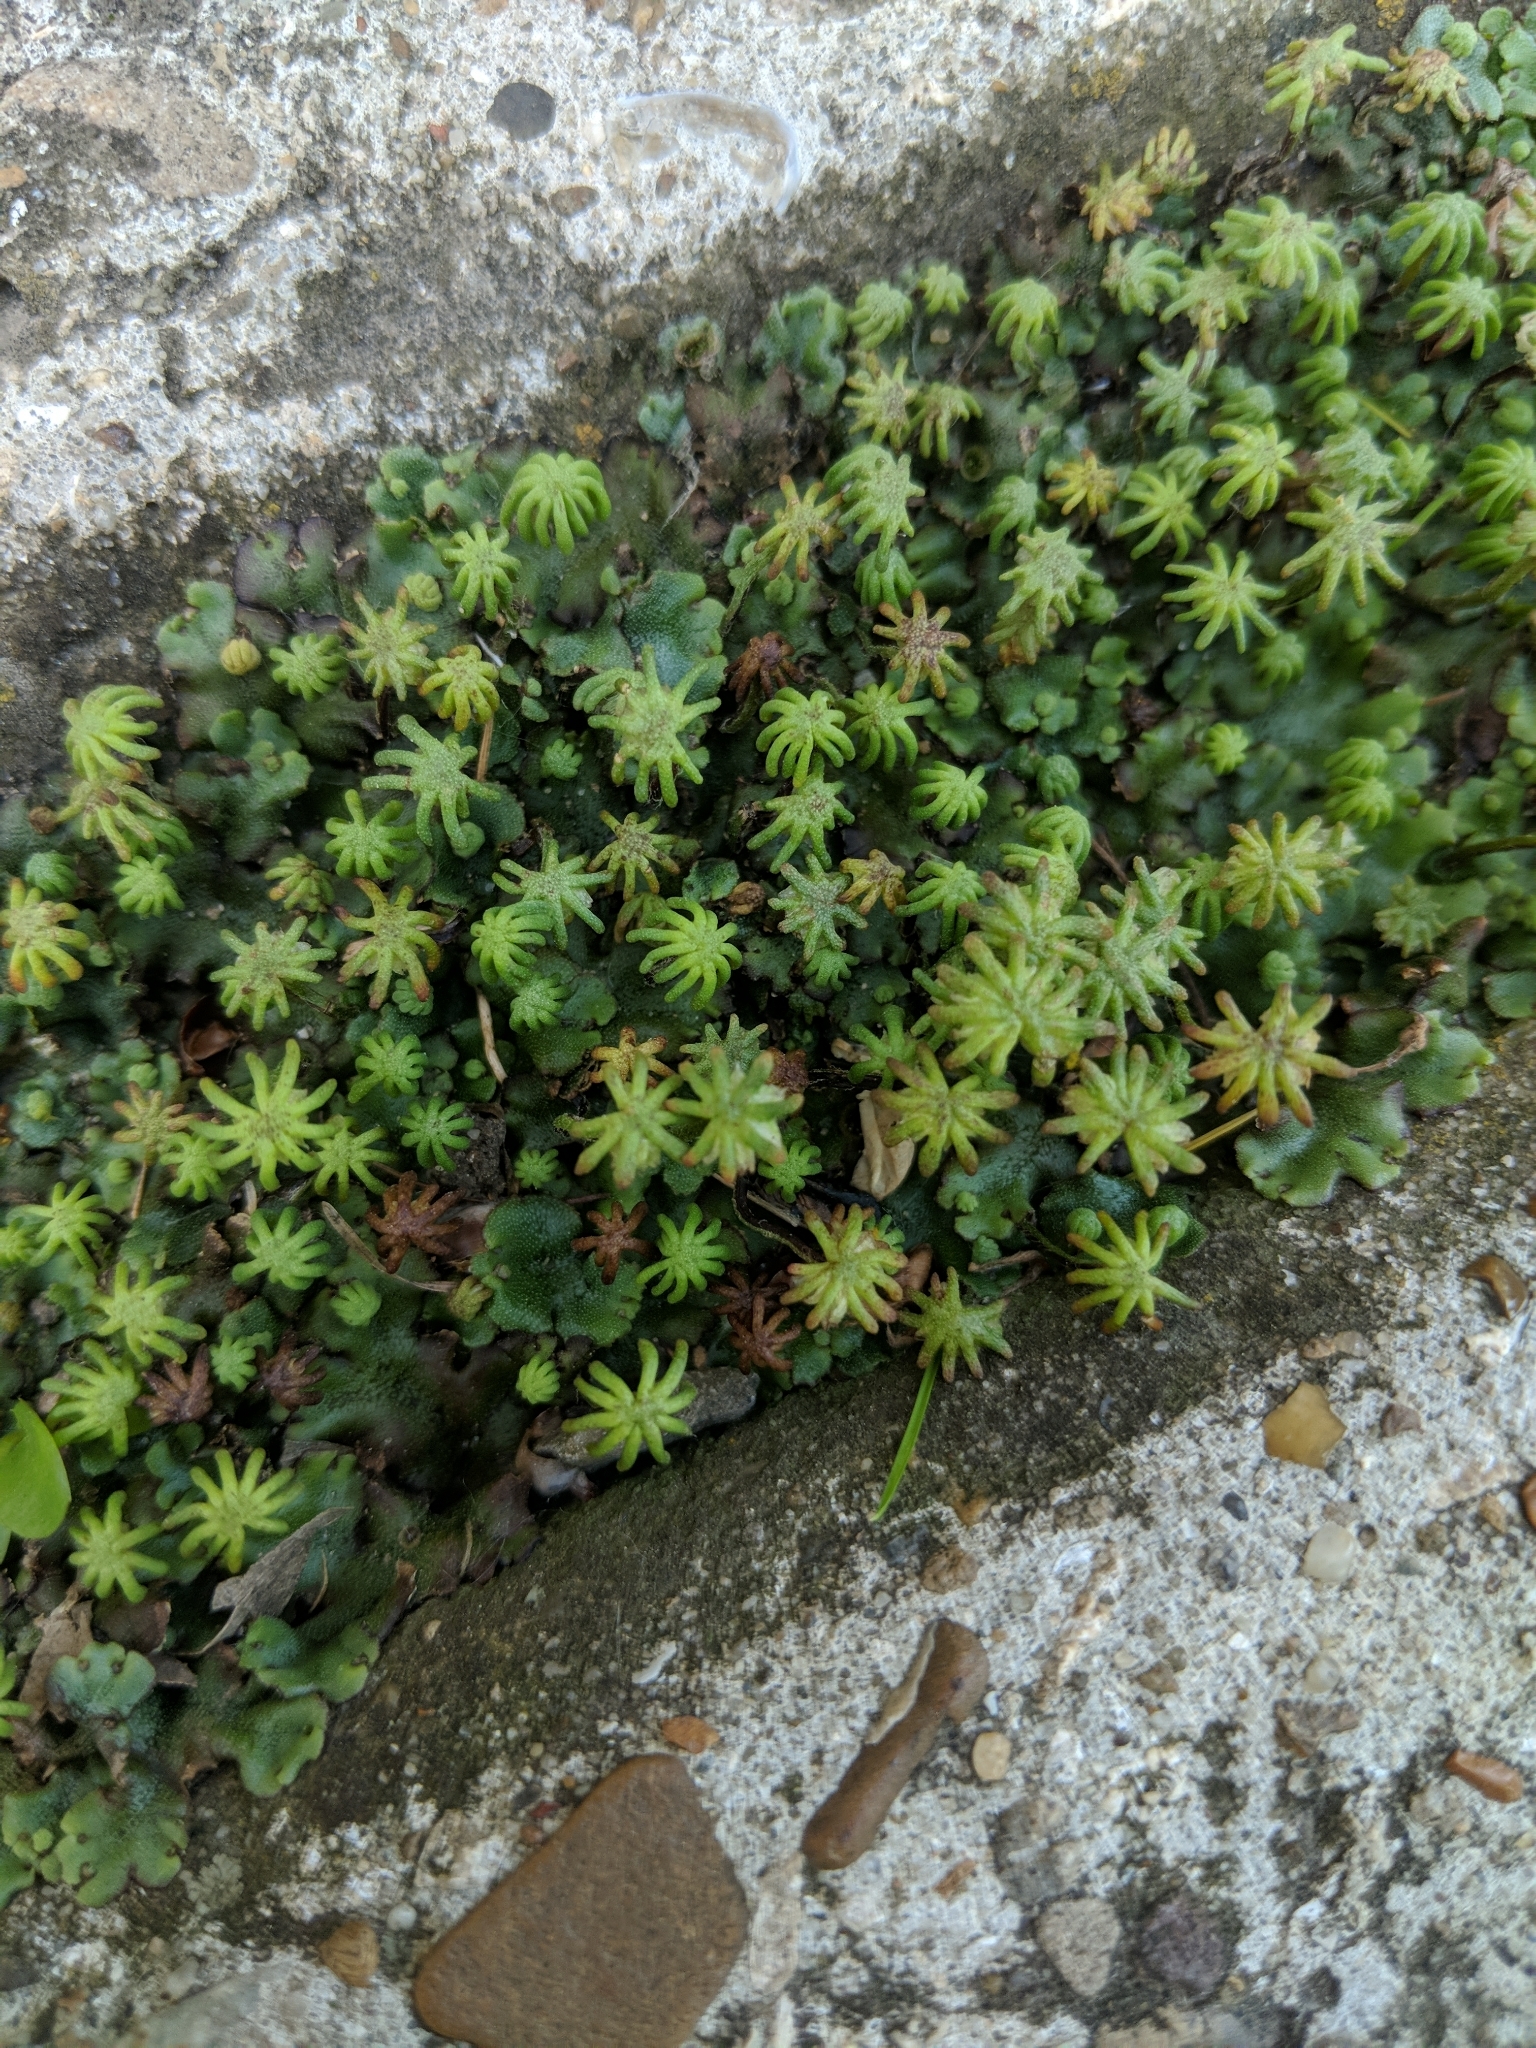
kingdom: Plantae
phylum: Marchantiophyta
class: Marchantiopsida
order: Marchantiales
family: Marchantiaceae
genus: Marchantia
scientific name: Marchantia polymorpha
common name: Common liverwort
